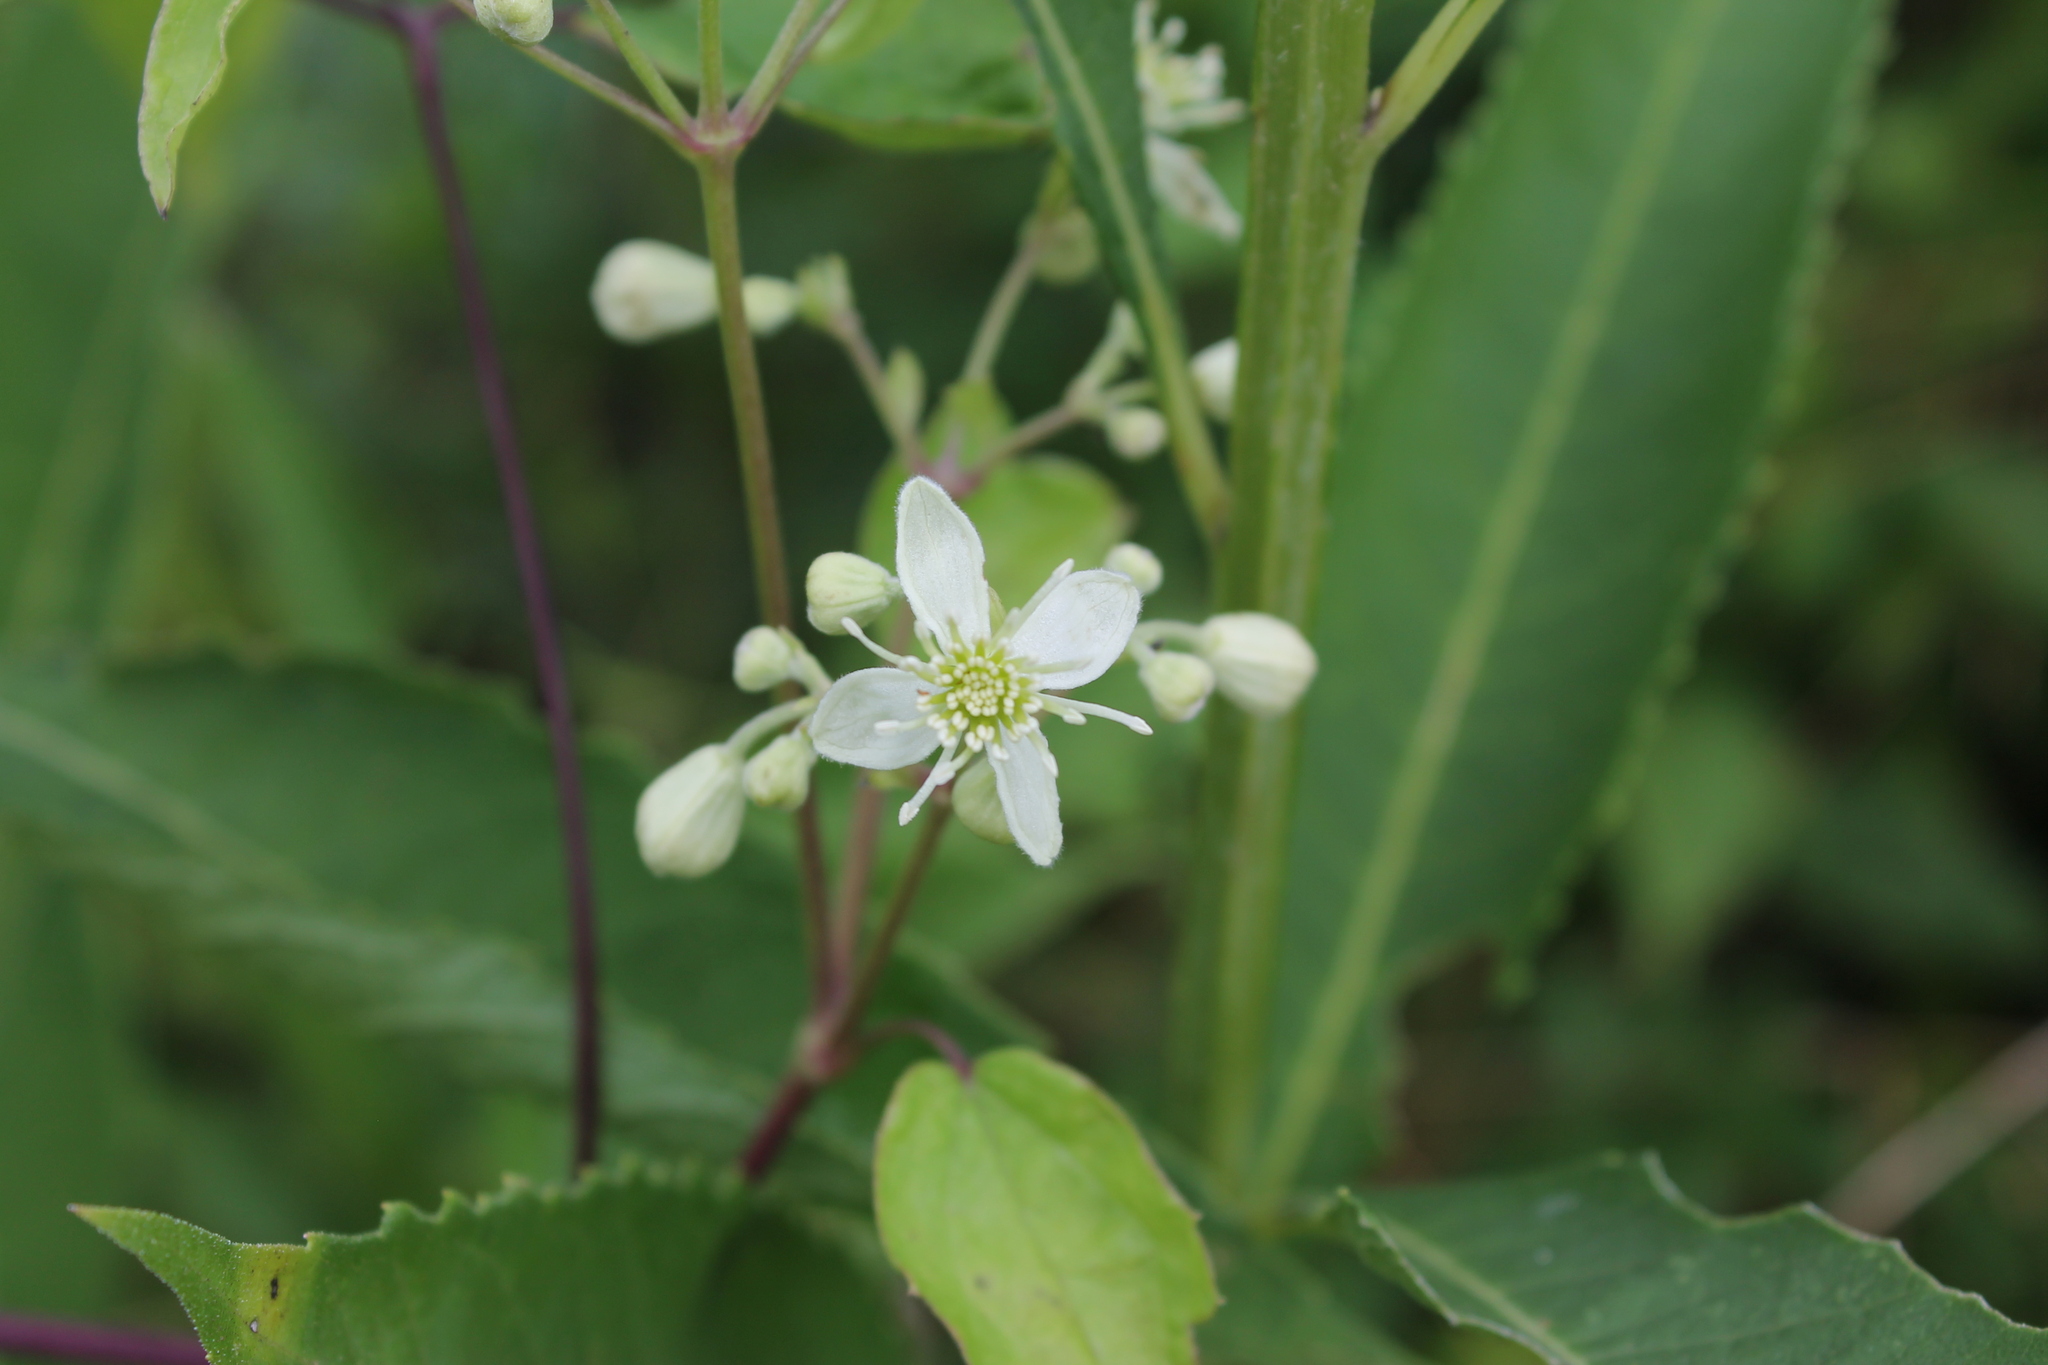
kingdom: Plantae
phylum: Tracheophyta
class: Magnoliopsida
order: Ranunculales
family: Ranunculaceae
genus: Clematis
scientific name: Clematis virginiana
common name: Virgin's-bower
